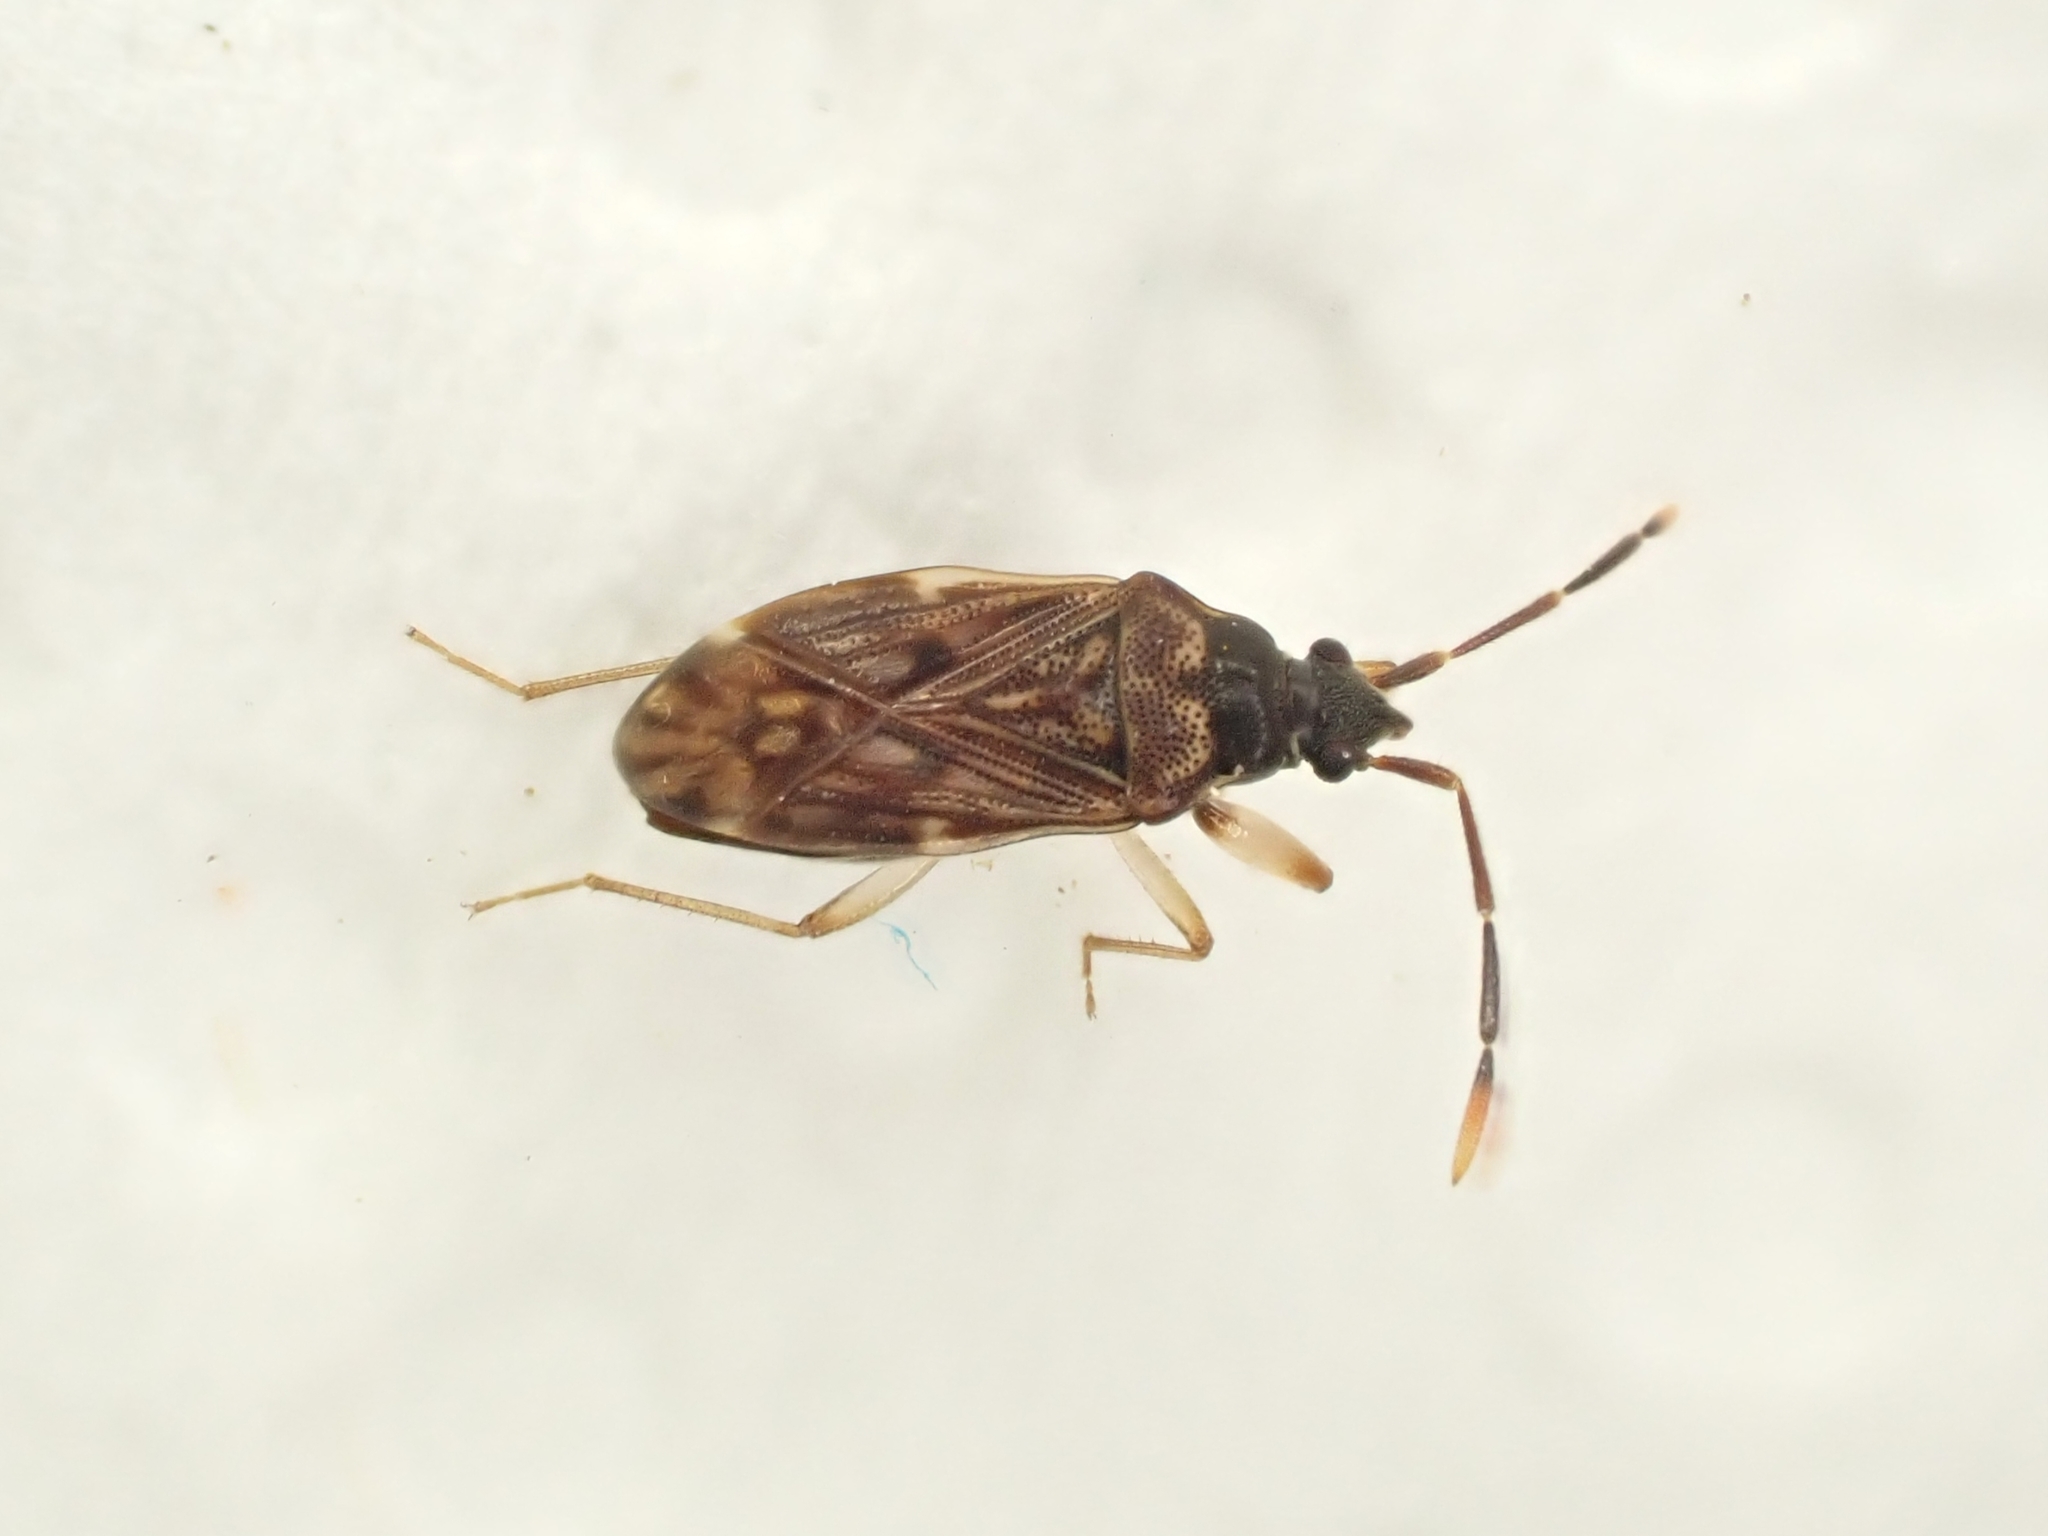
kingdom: Animalia
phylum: Arthropoda
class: Insecta
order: Hemiptera
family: Rhyparochromidae
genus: Grossander
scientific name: Grossander major
